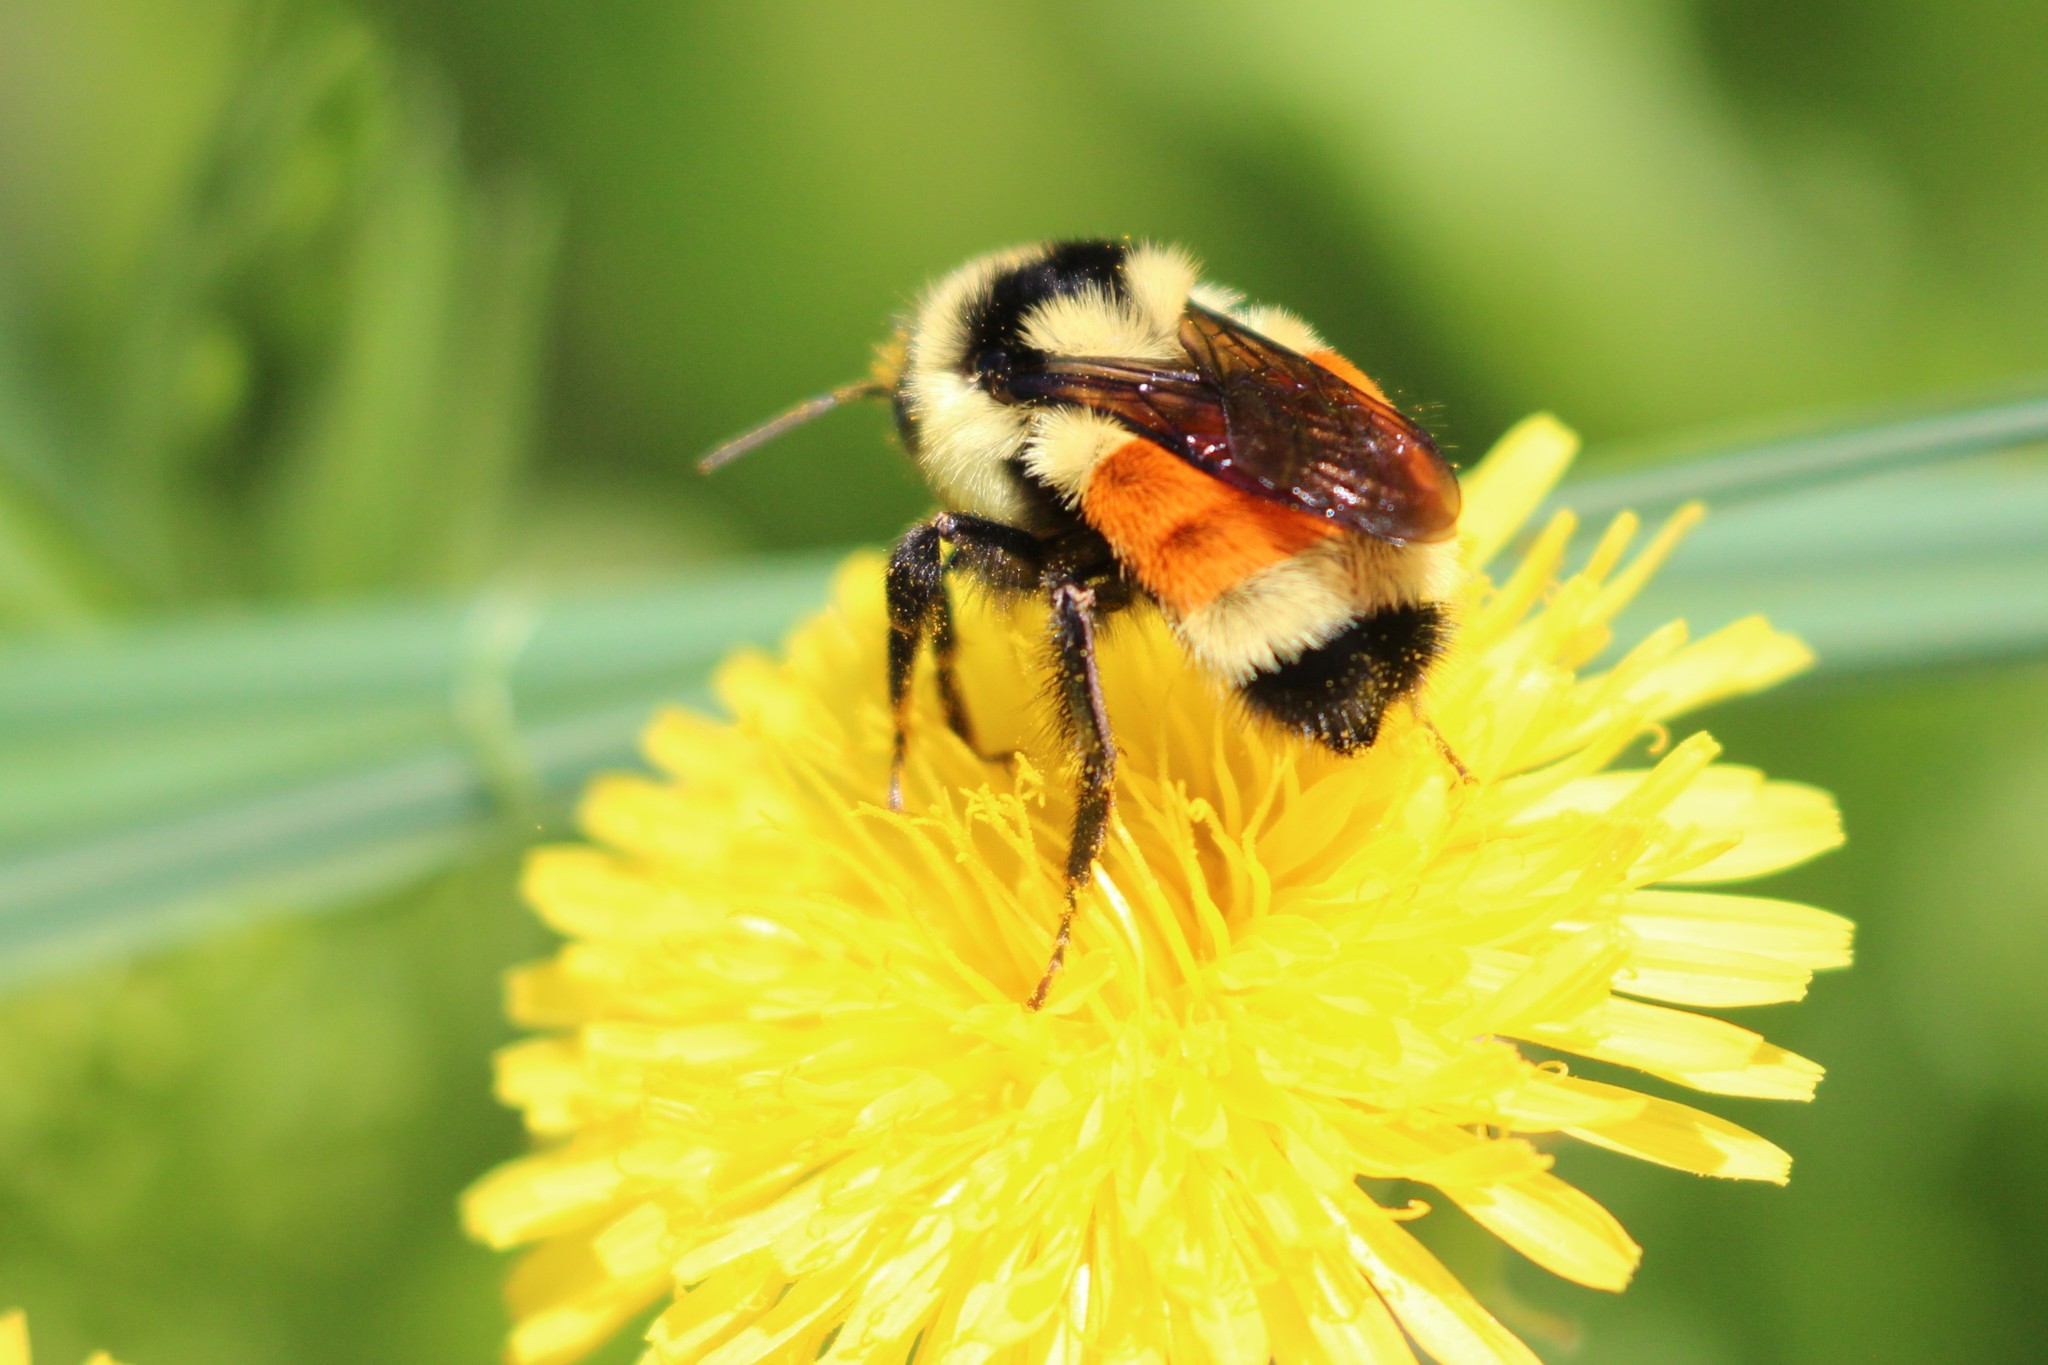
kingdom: Animalia
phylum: Arthropoda
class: Insecta
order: Hymenoptera
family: Apidae
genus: Bombus
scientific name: Bombus ternarius
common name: Tri-colored bumble bee
